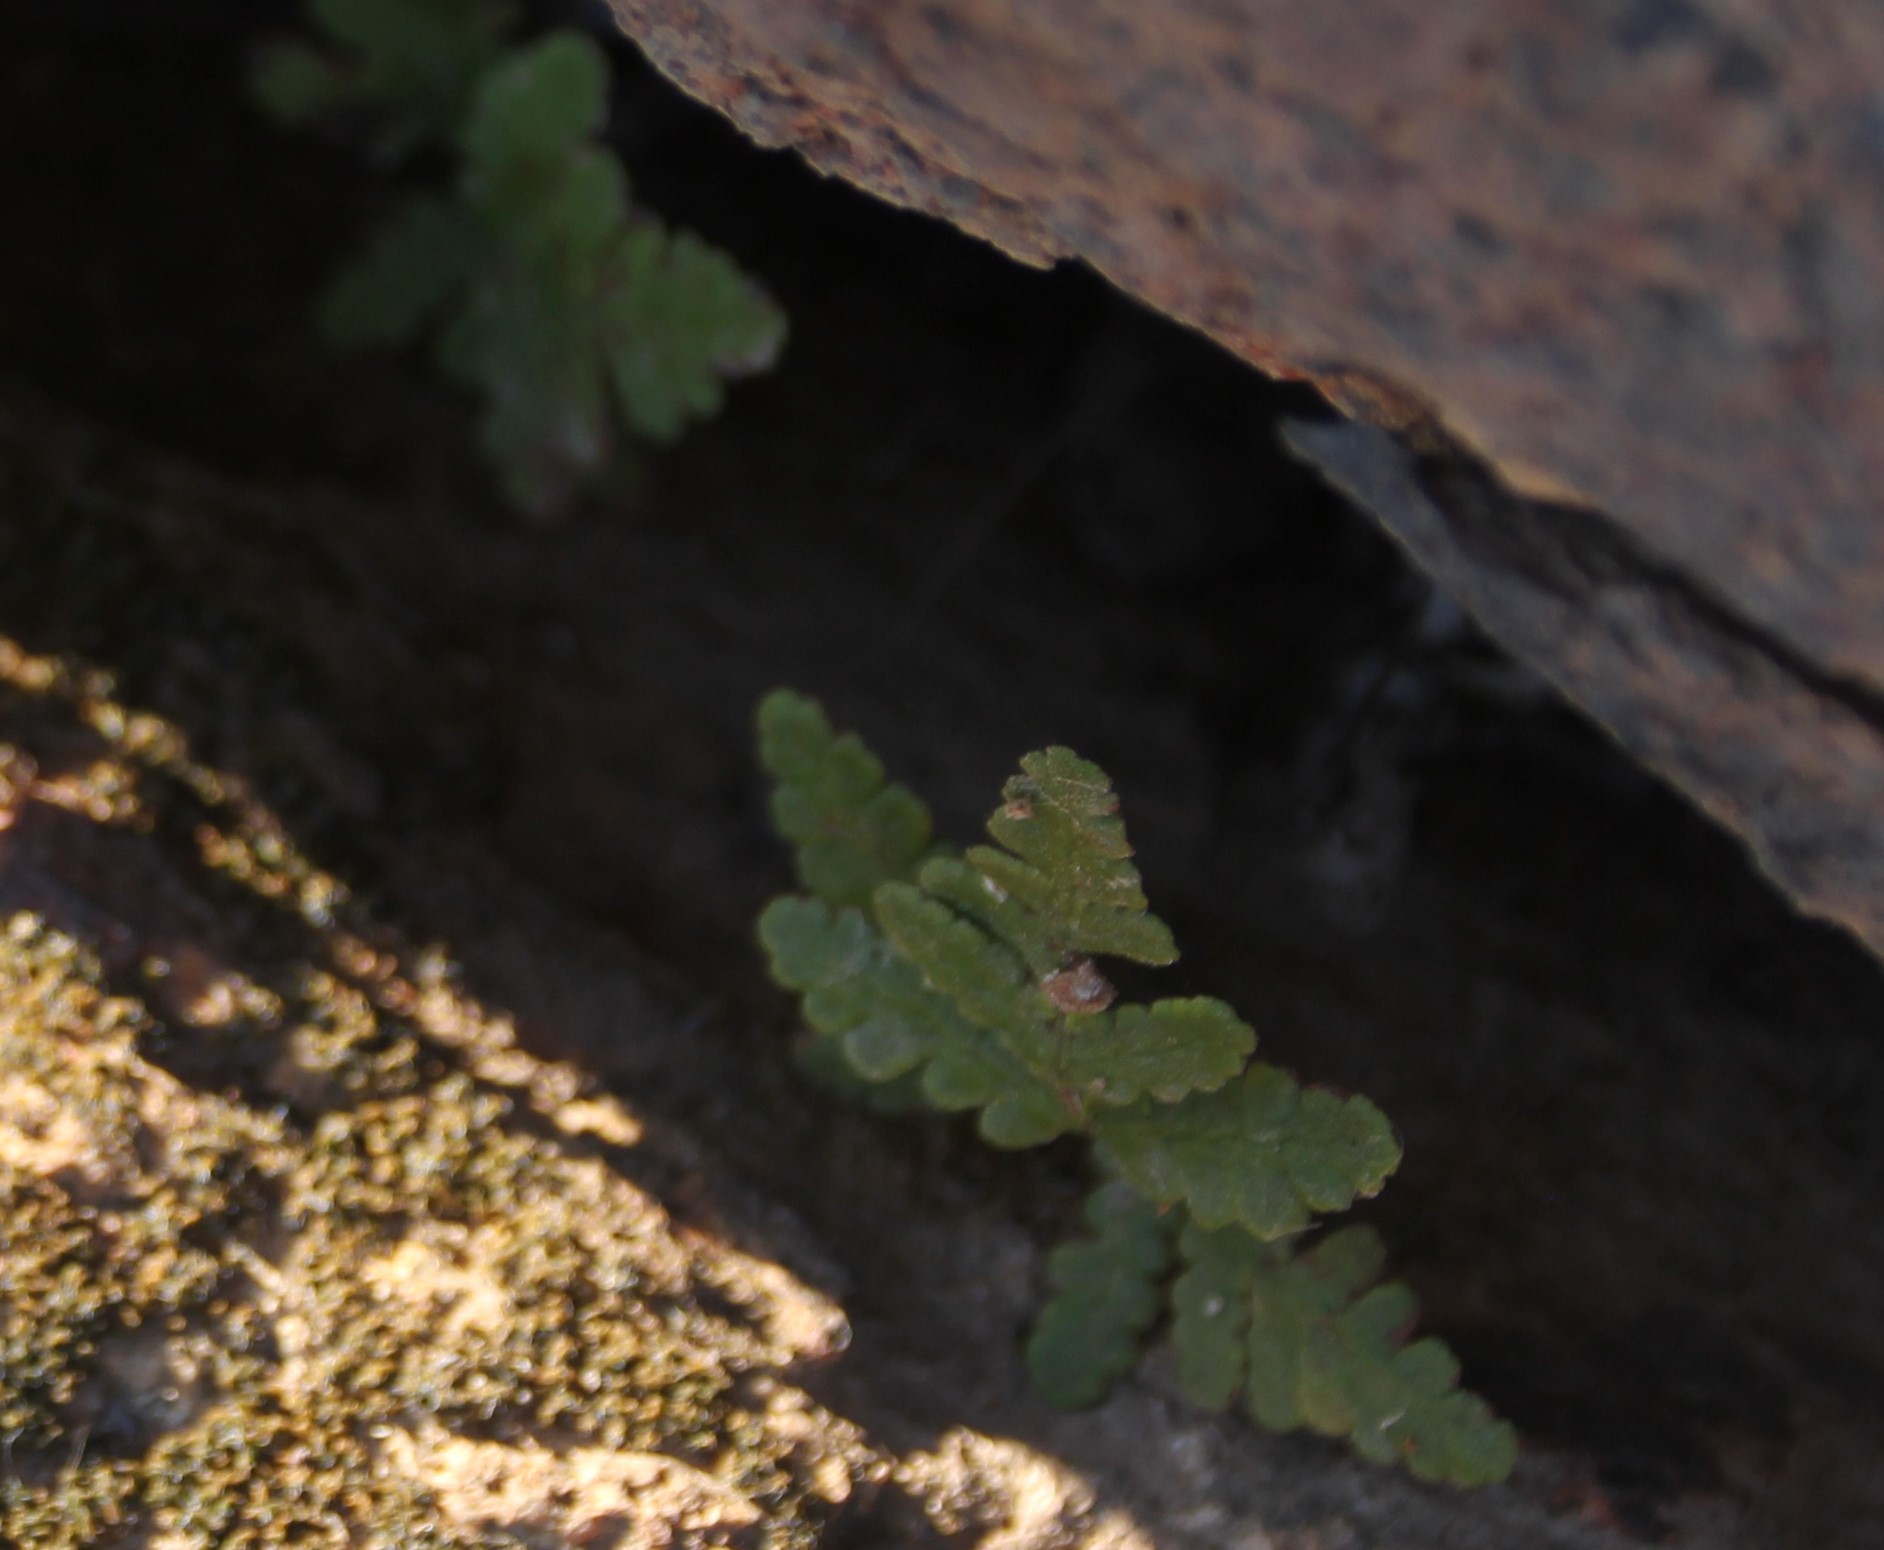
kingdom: Plantae
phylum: Tracheophyta
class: Polypodiopsida
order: Polypodiales
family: Pteridaceae
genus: Pentagramma
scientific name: Pentagramma glanduloviscida
